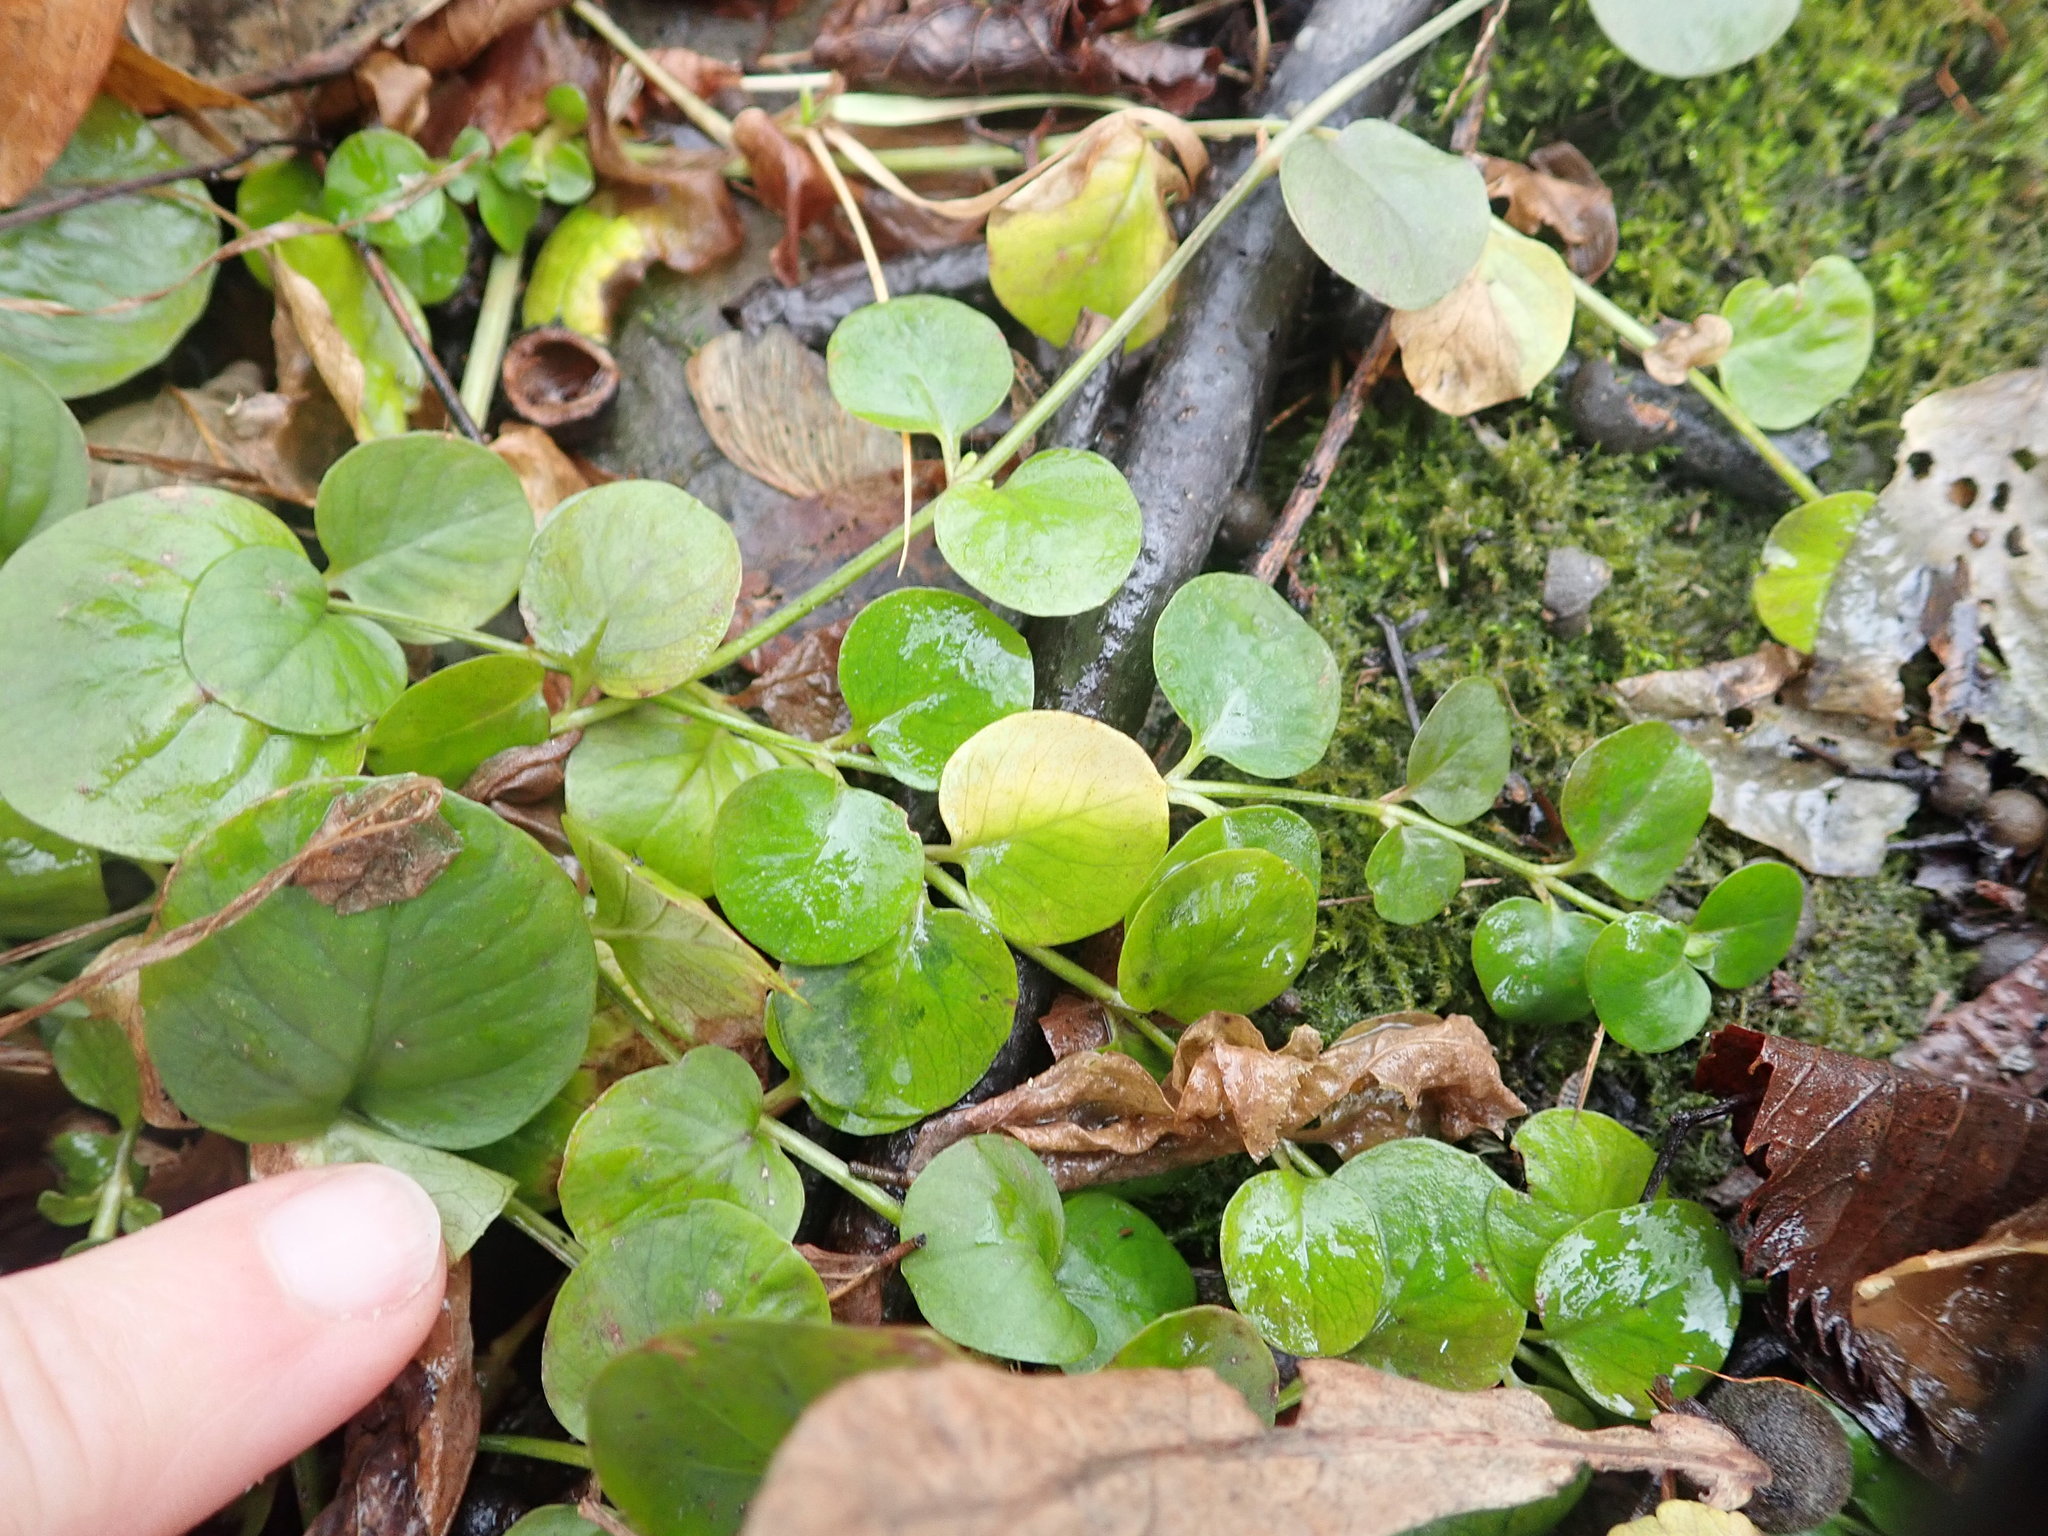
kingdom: Plantae
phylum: Tracheophyta
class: Magnoliopsida
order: Ericales
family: Primulaceae
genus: Lysimachia
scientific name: Lysimachia nummularia
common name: Moneywort
